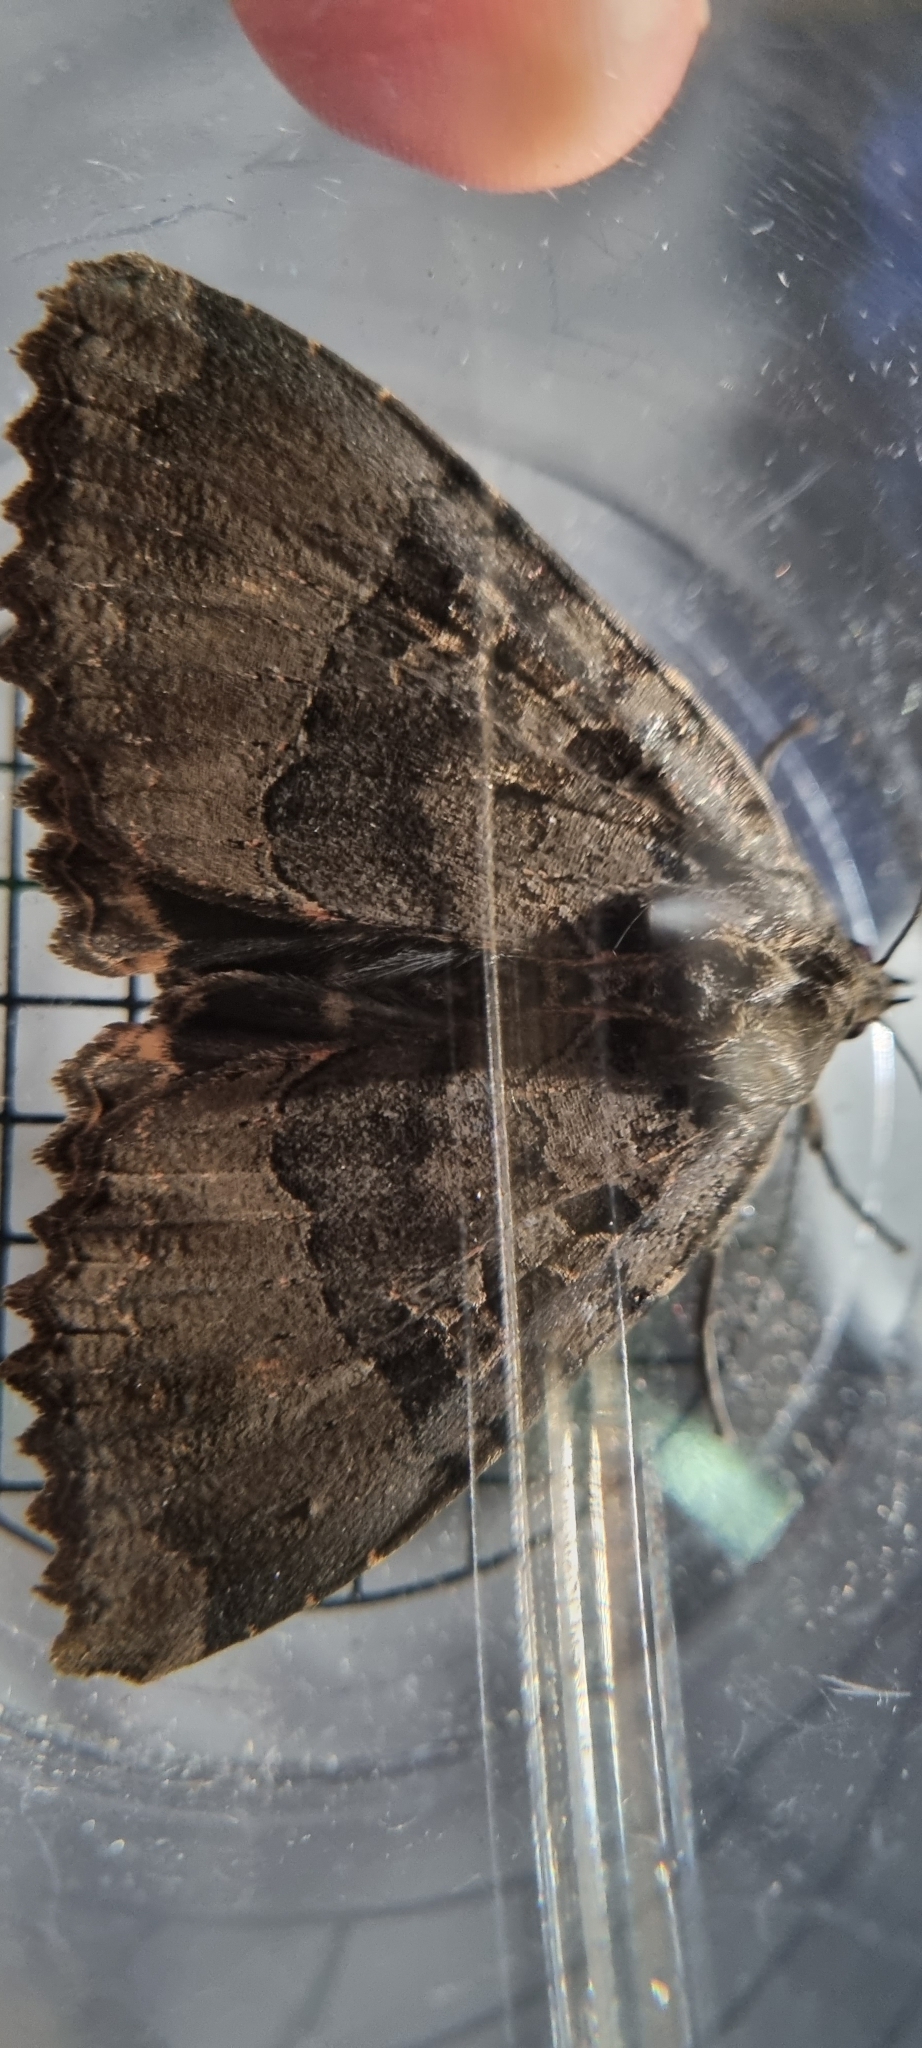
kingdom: Animalia
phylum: Arthropoda
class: Insecta
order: Lepidoptera
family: Noctuidae
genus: Mormo
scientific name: Mormo maura
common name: Old lady
